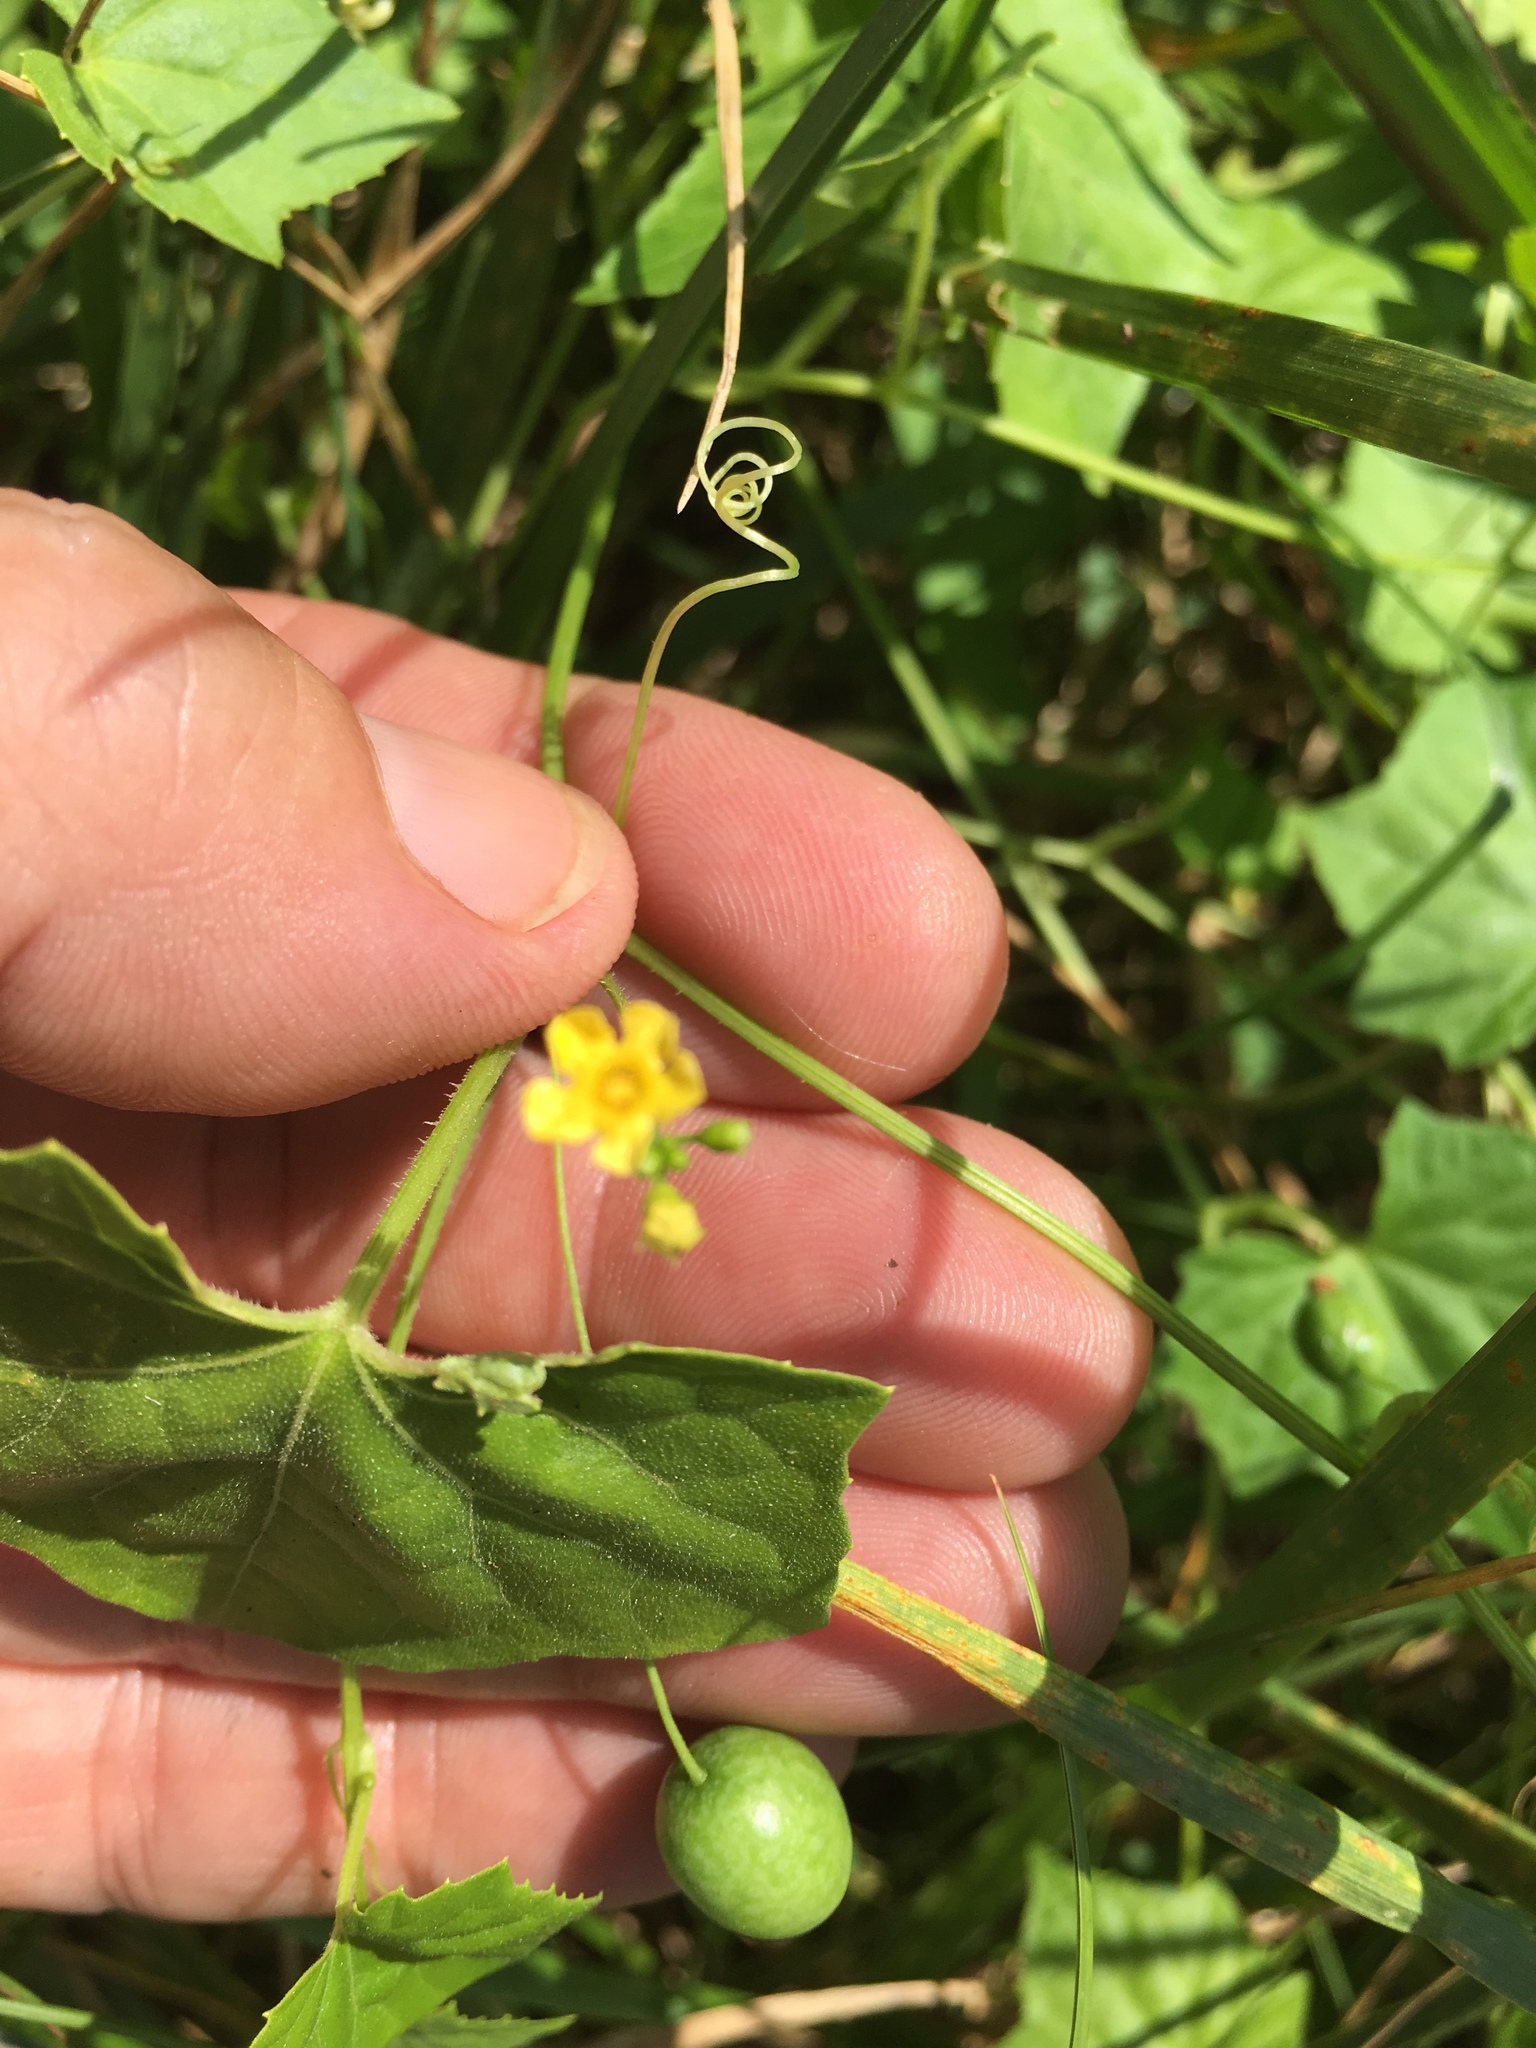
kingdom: Plantae
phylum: Tracheophyta
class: Magnoliopsida
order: Cucurbitales
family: Cucurbitaceae
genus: Melothria
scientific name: Melothria pendula
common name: Creeping-cucumber
